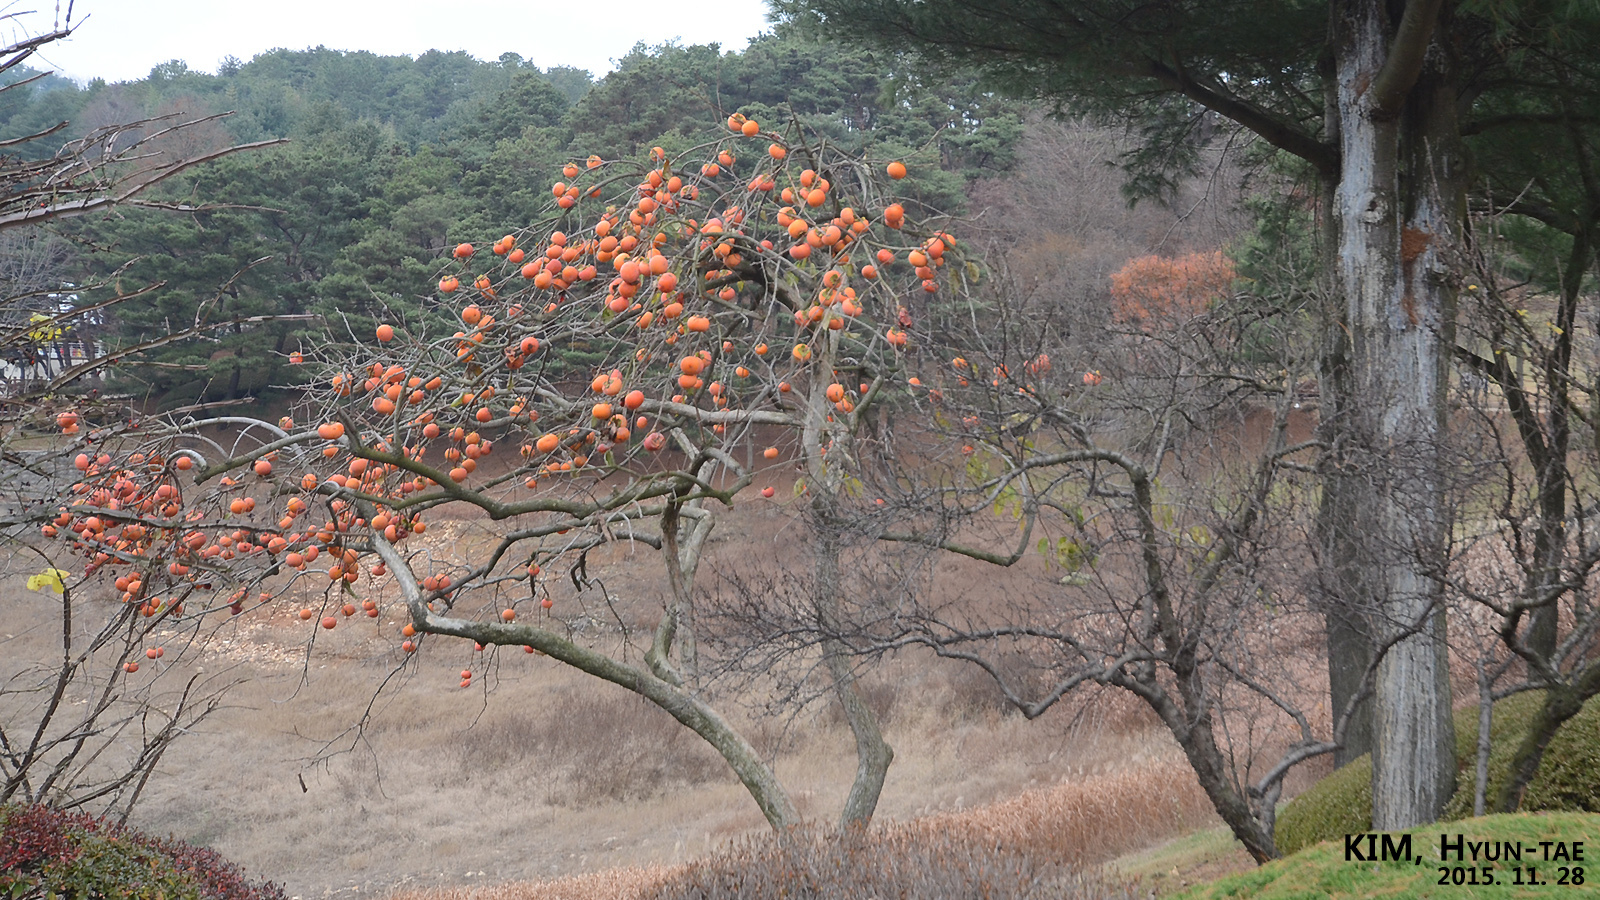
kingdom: Plantae
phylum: Tracheophyta
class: Magnoliopsida
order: Ericales
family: Ebenaceae
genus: Diospyros
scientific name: Diospyros kaki
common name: Persimmon
